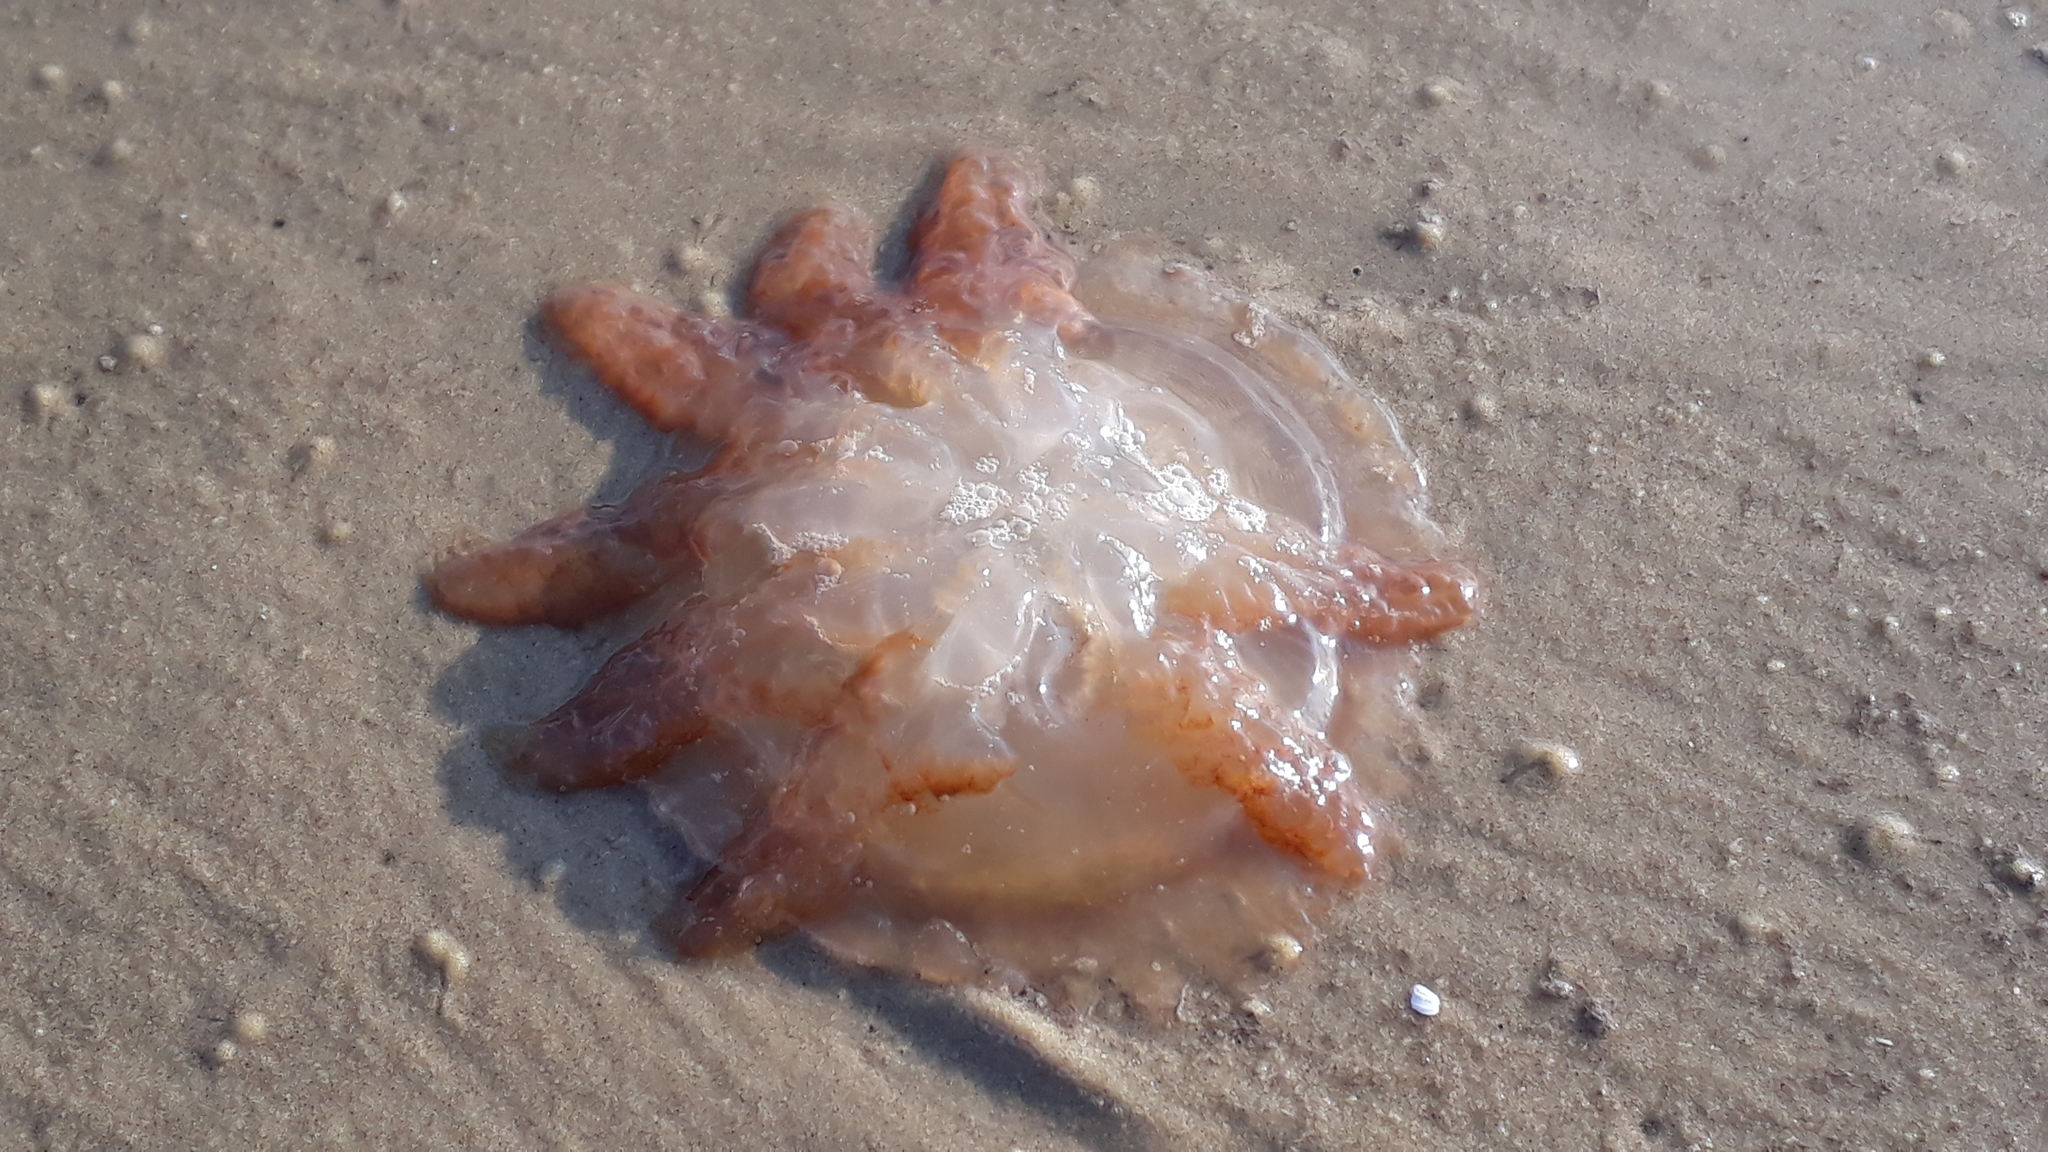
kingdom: Animalia
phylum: Cnidaria
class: Scyphozoa
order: Rhizostomeae
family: Lychnorhizidae
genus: Lychnorhiza
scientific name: Lychnorhiza lucerna
